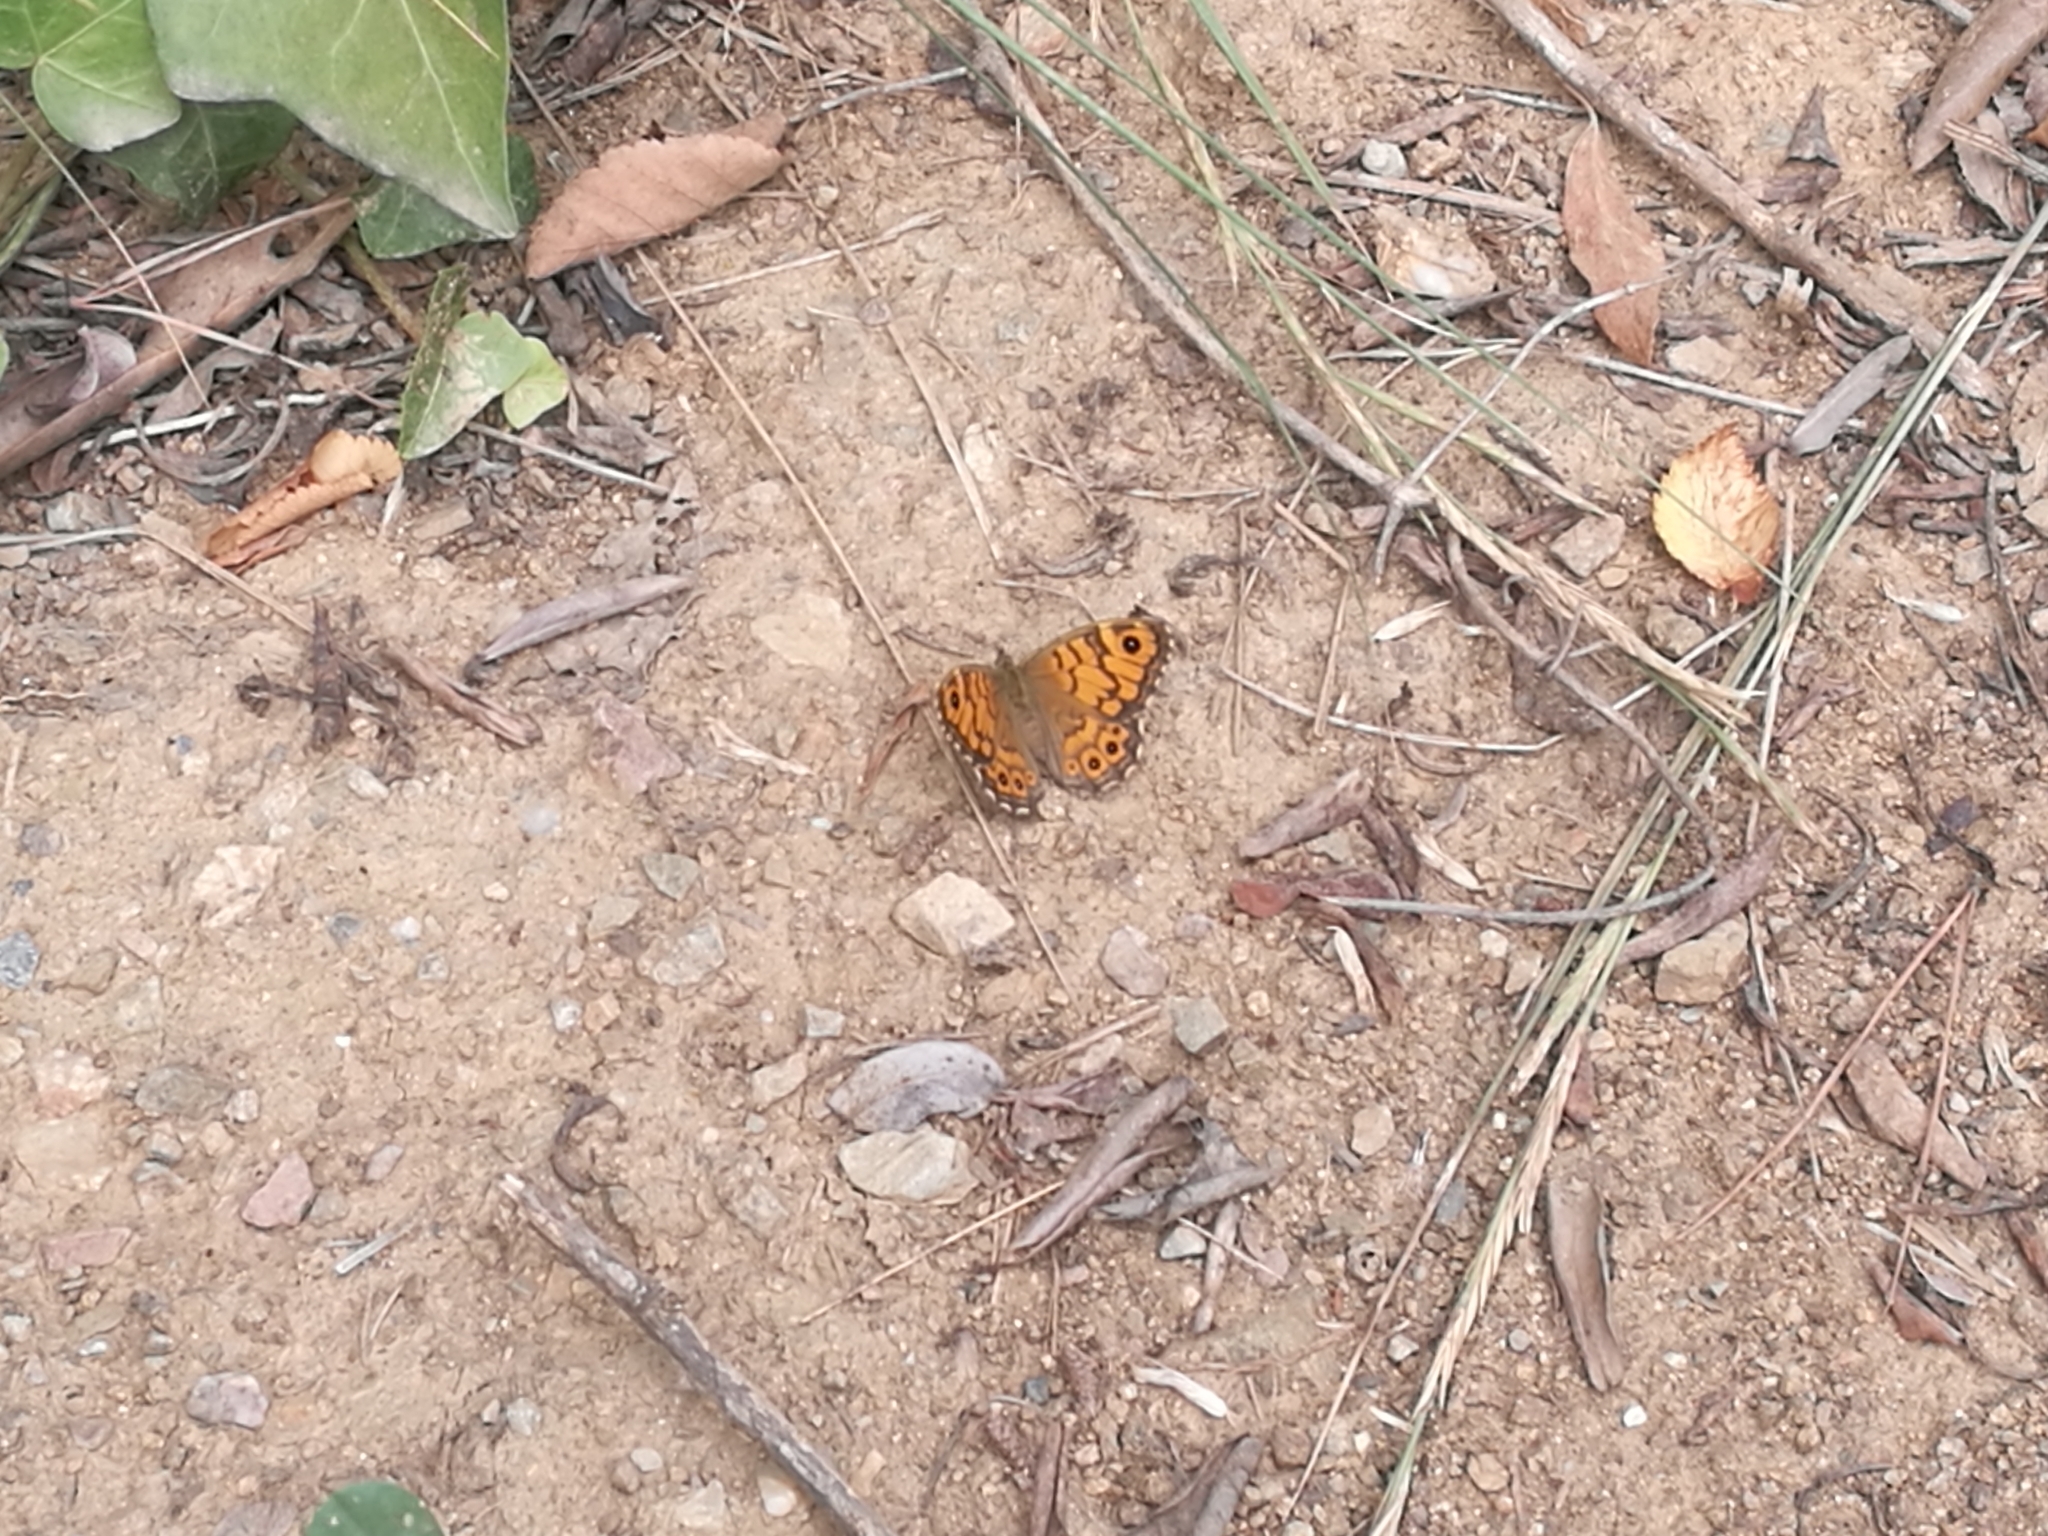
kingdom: Animalia
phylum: Arthropoda
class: Insecta
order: Lepidoptera
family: Nymphalidae
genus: Pararge
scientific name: Pararge Lasiommata megera
